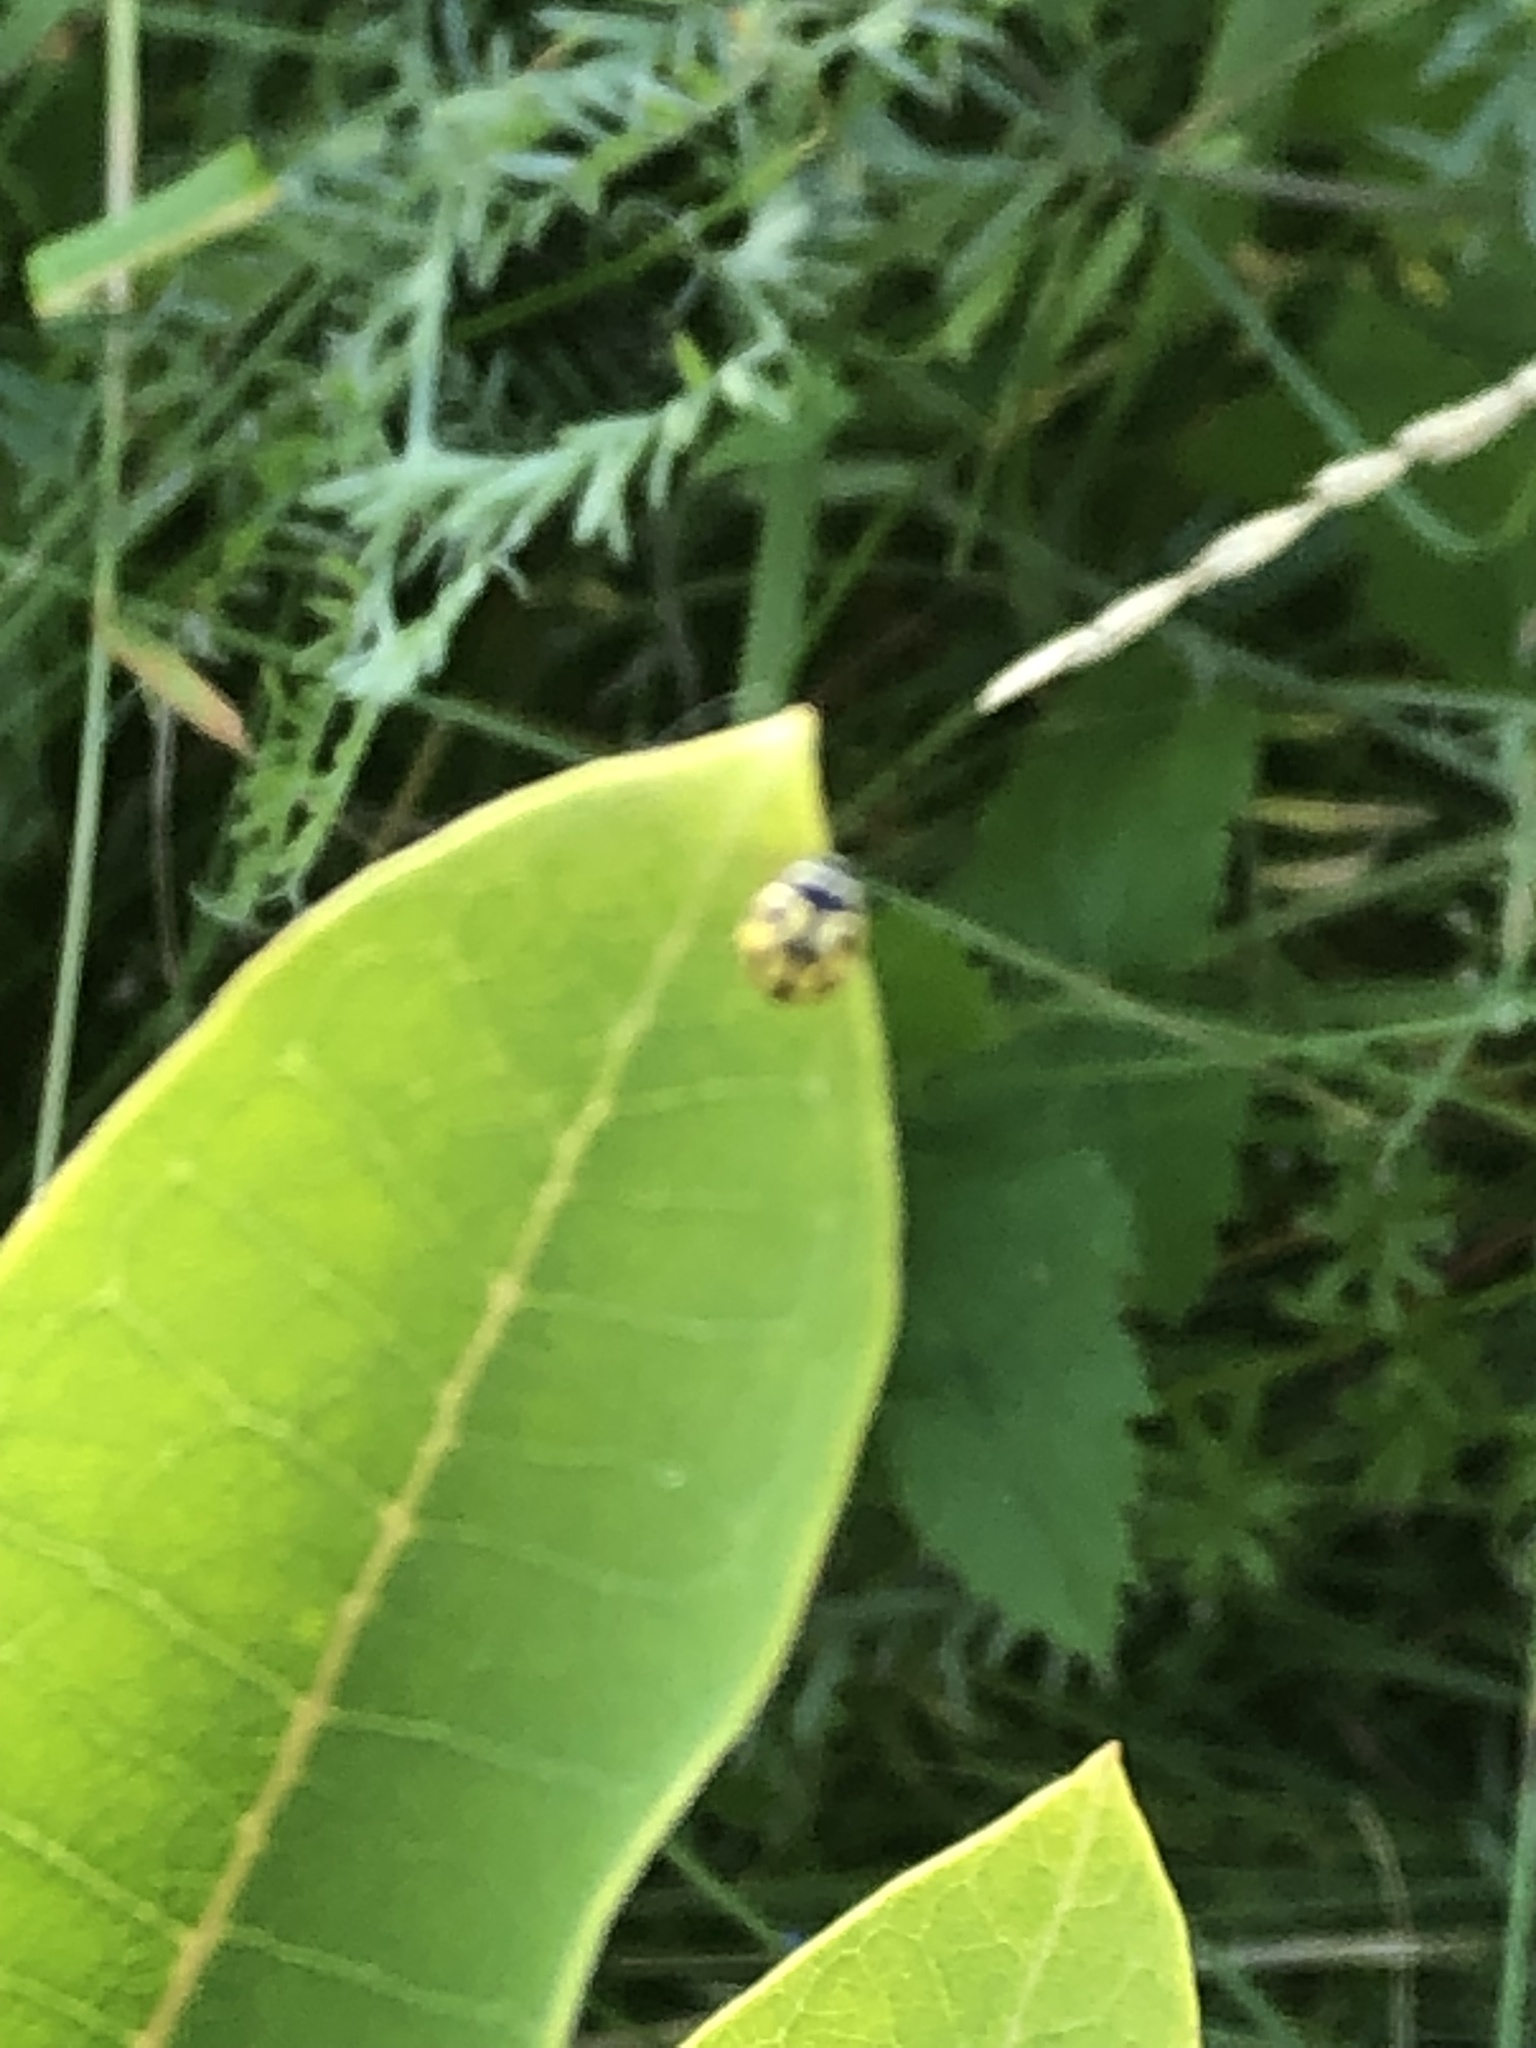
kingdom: Animalia
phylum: Arthropoda
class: Insecta
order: Coleoptera
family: Coccinellidae
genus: Propylaea
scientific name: Propylaea quatuordecimpunctata
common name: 14-spotted ladybird beetle
